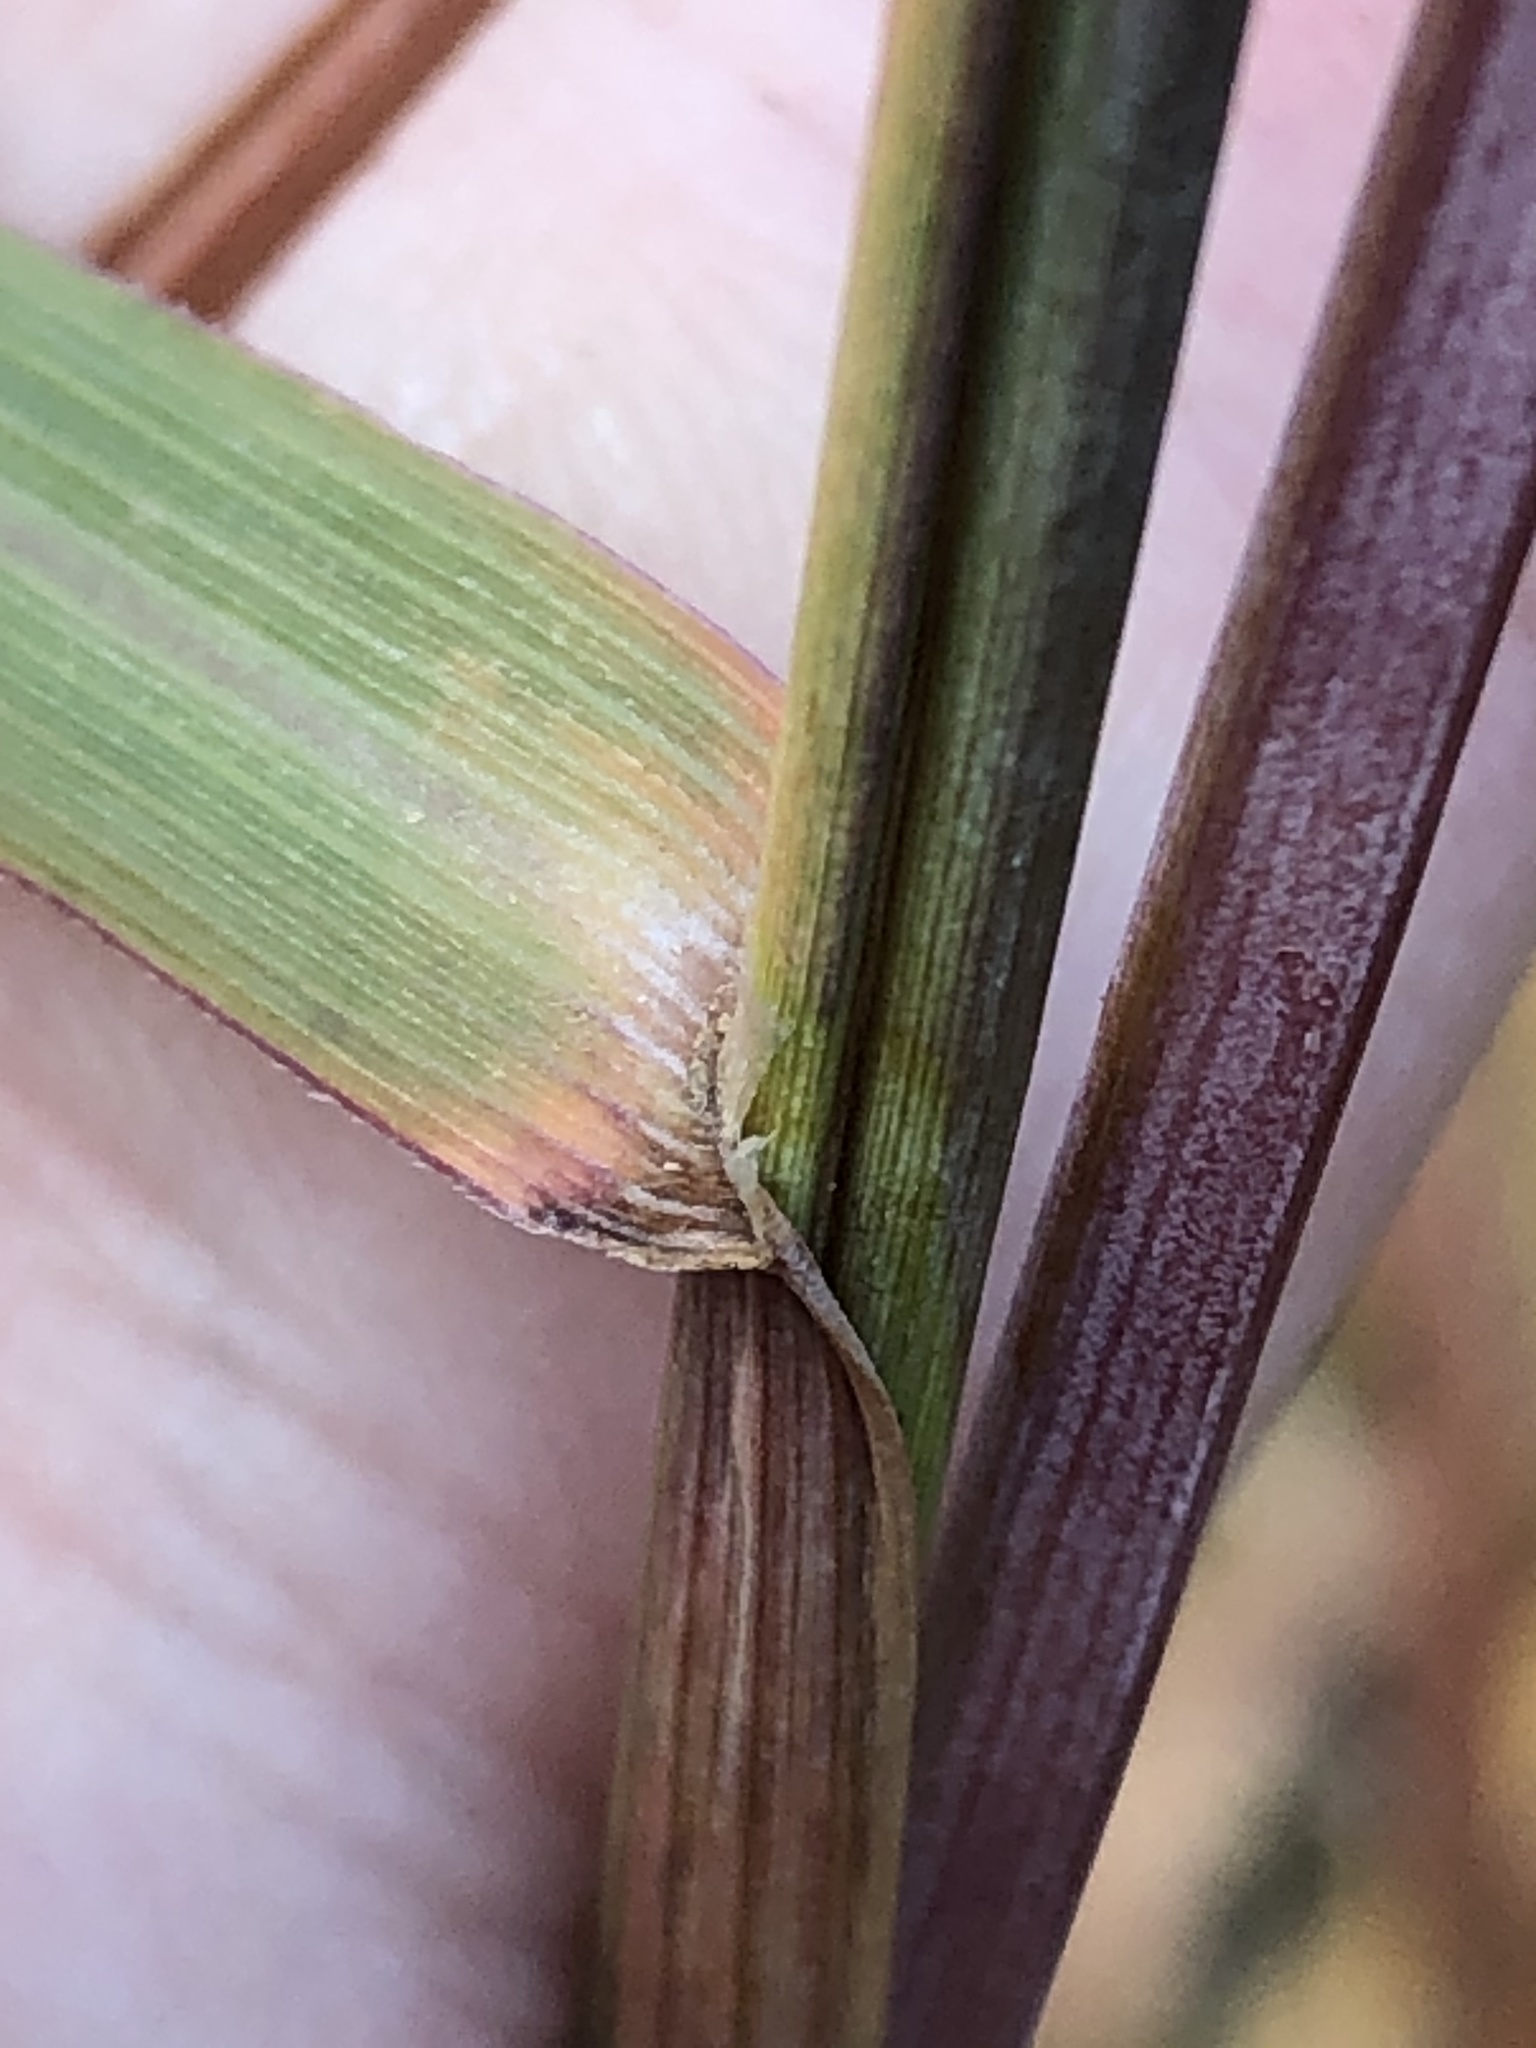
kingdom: Plantae
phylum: Tracheophyta
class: Liliopsida
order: Poales
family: Poaceae
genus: Andropogon
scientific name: Andropogon gerardi
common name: Big bluestem
